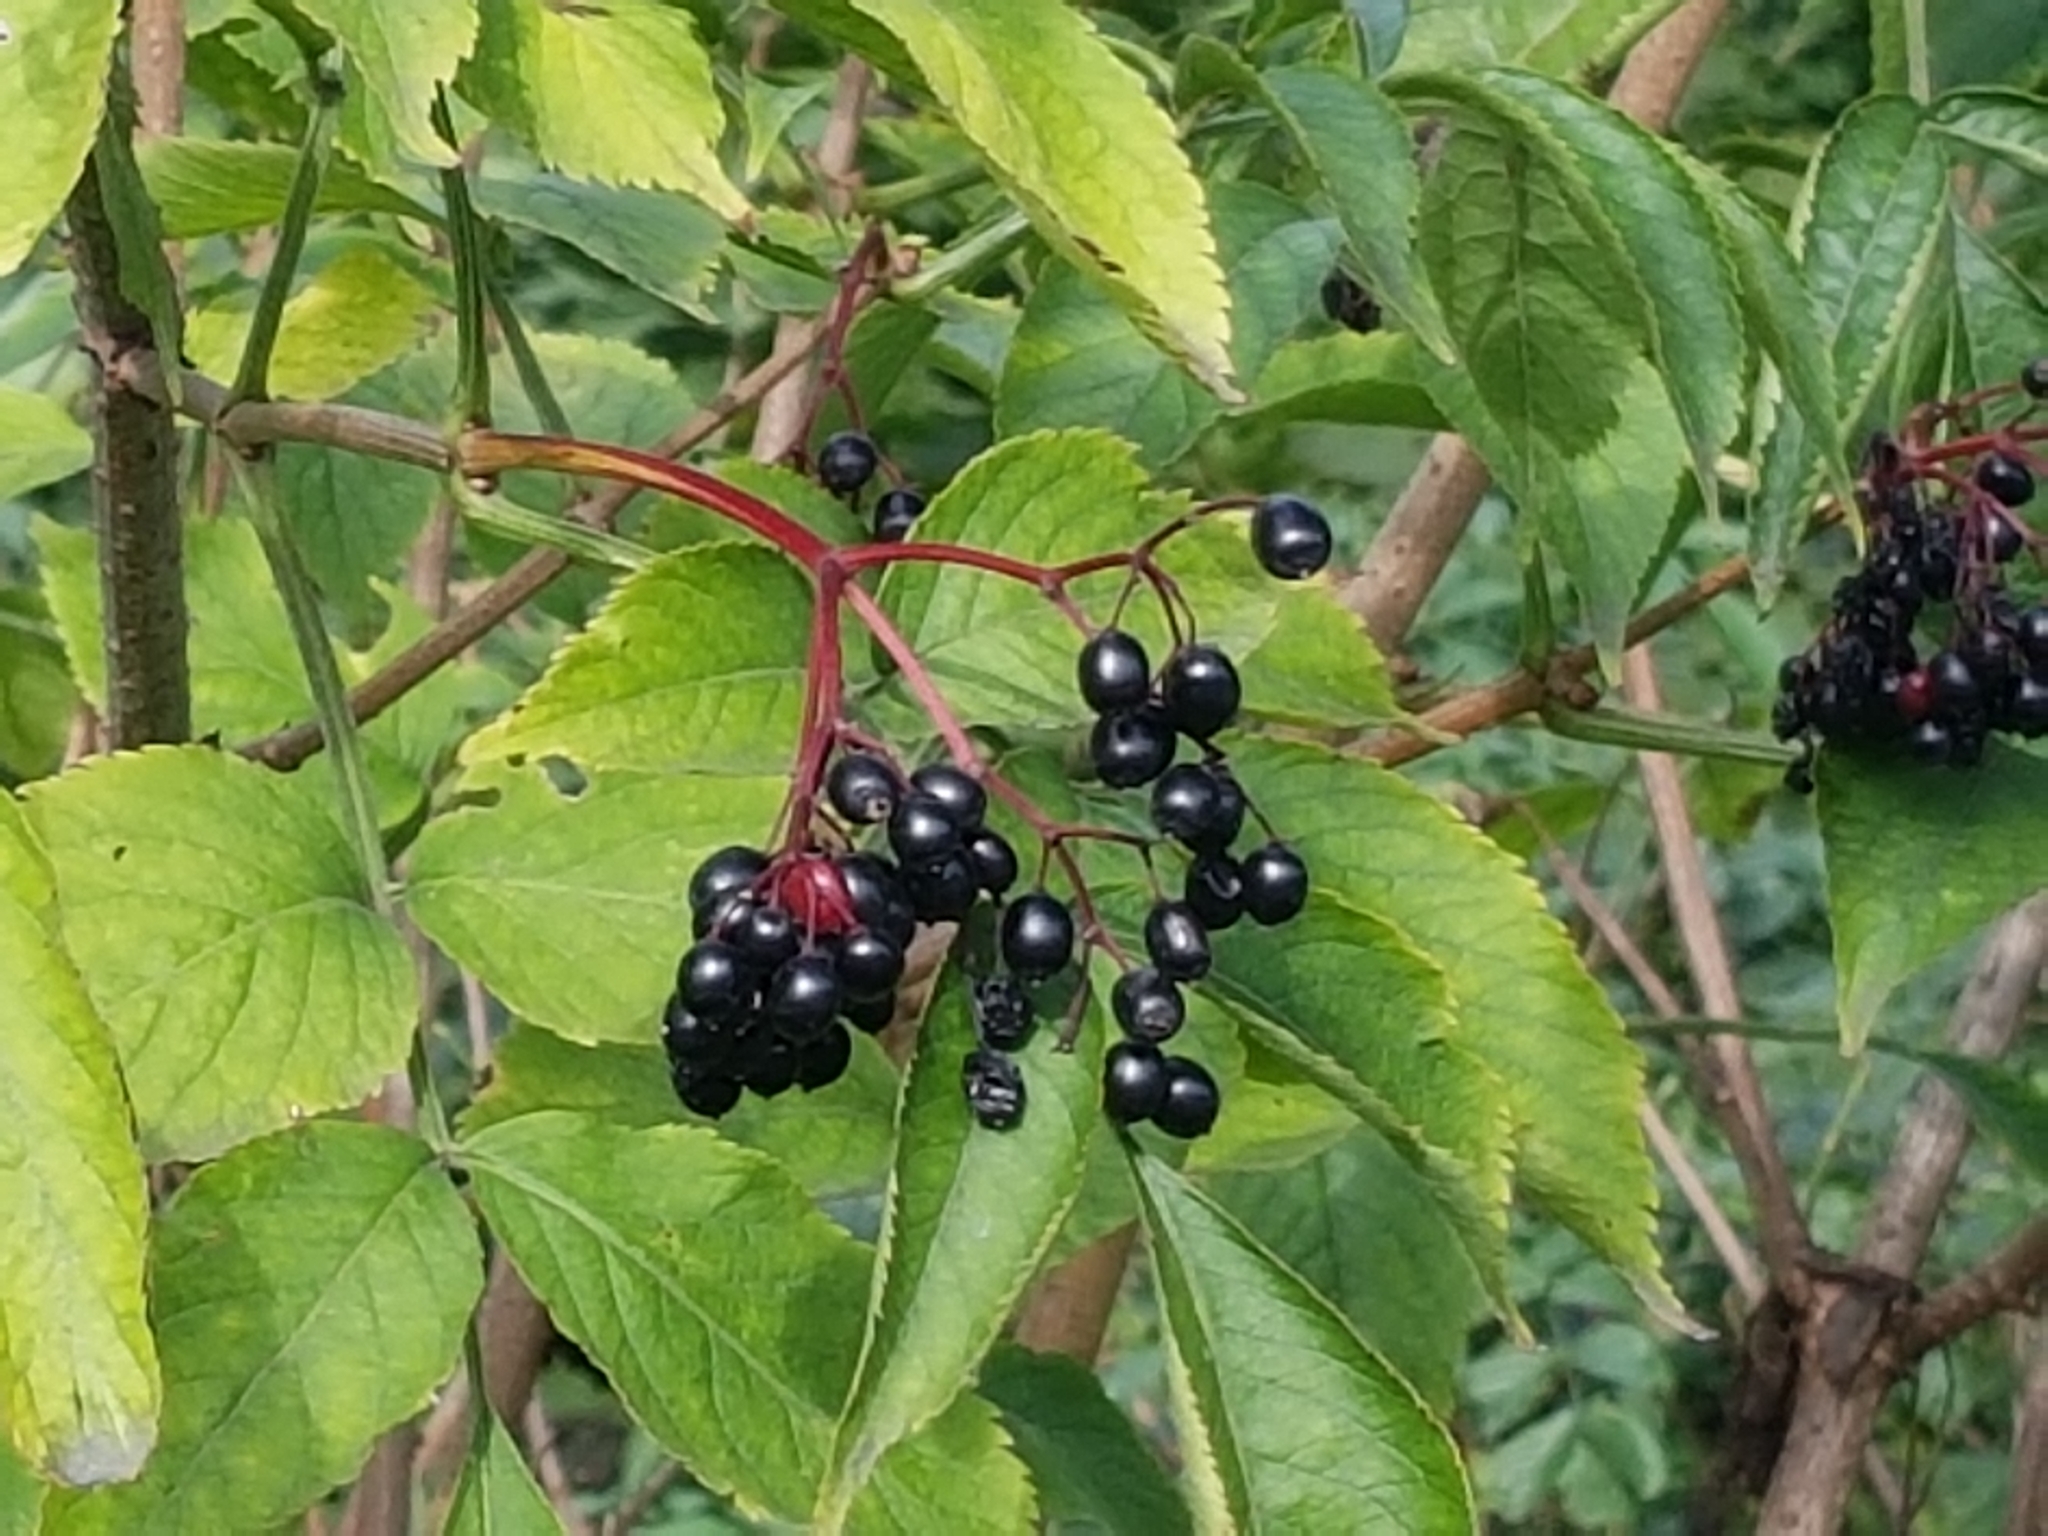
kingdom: Plantae
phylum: Tracheophyta
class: Magnoliopsida
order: Dipsacales
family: Viburnaceae
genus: Sambucus
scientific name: Sambucus nigra
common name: Elder
